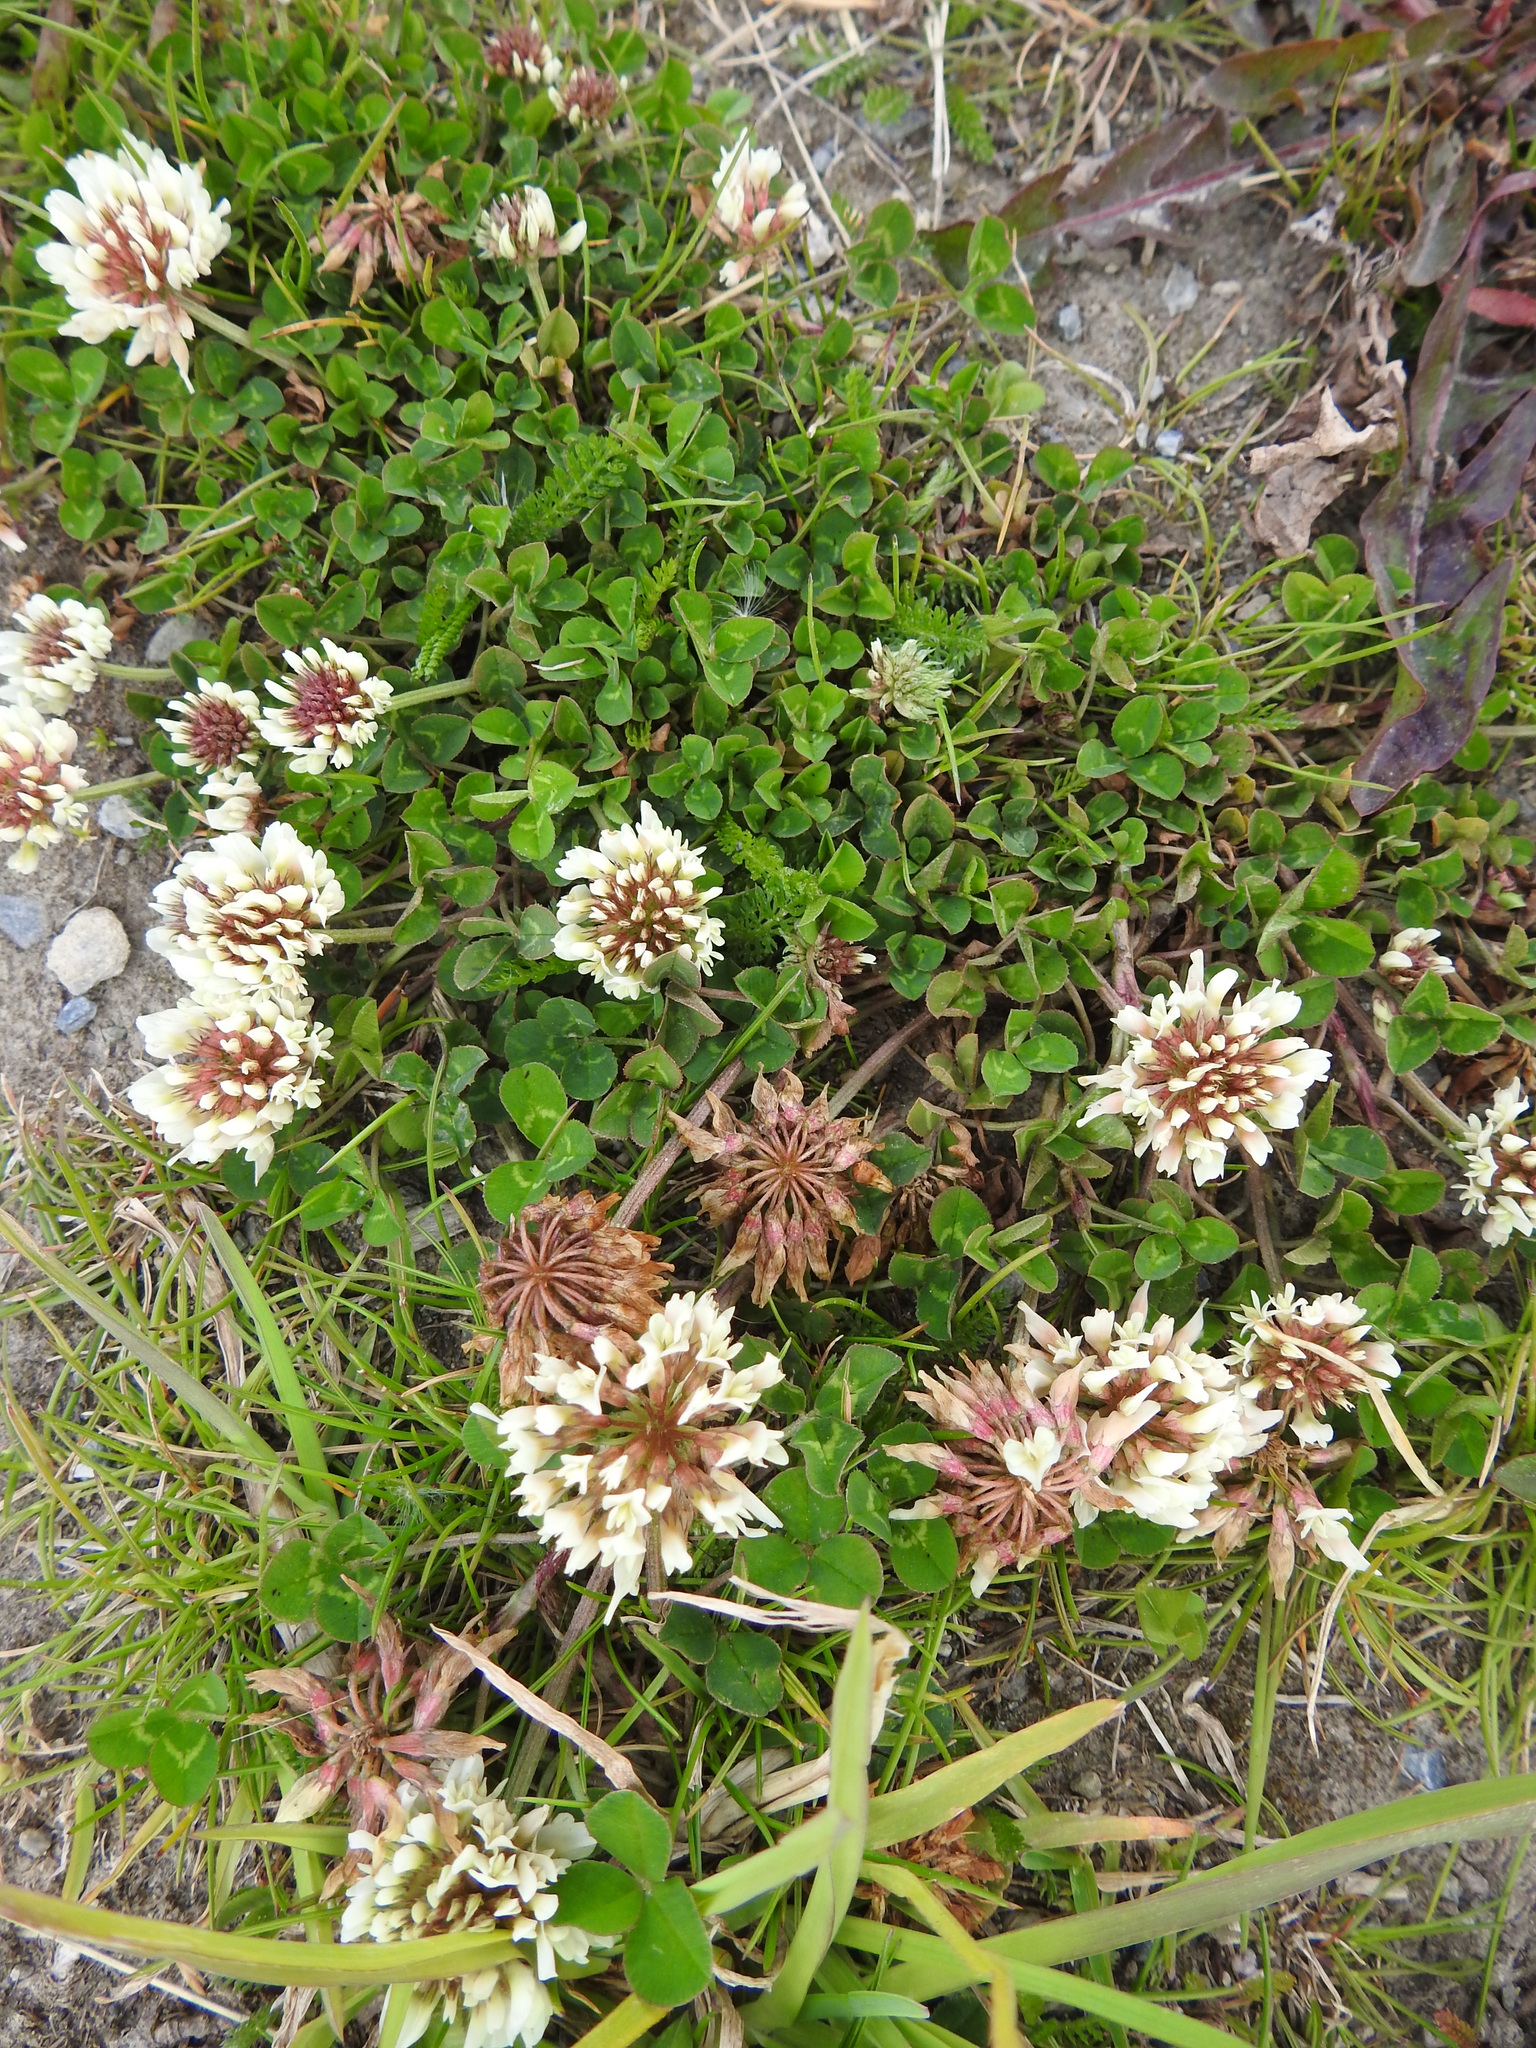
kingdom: Plantae
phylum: Tracheophyta
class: Magnoliopsida
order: Fabales
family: Fabaceae
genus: Trifolium
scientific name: Trifolium repens
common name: White clover
